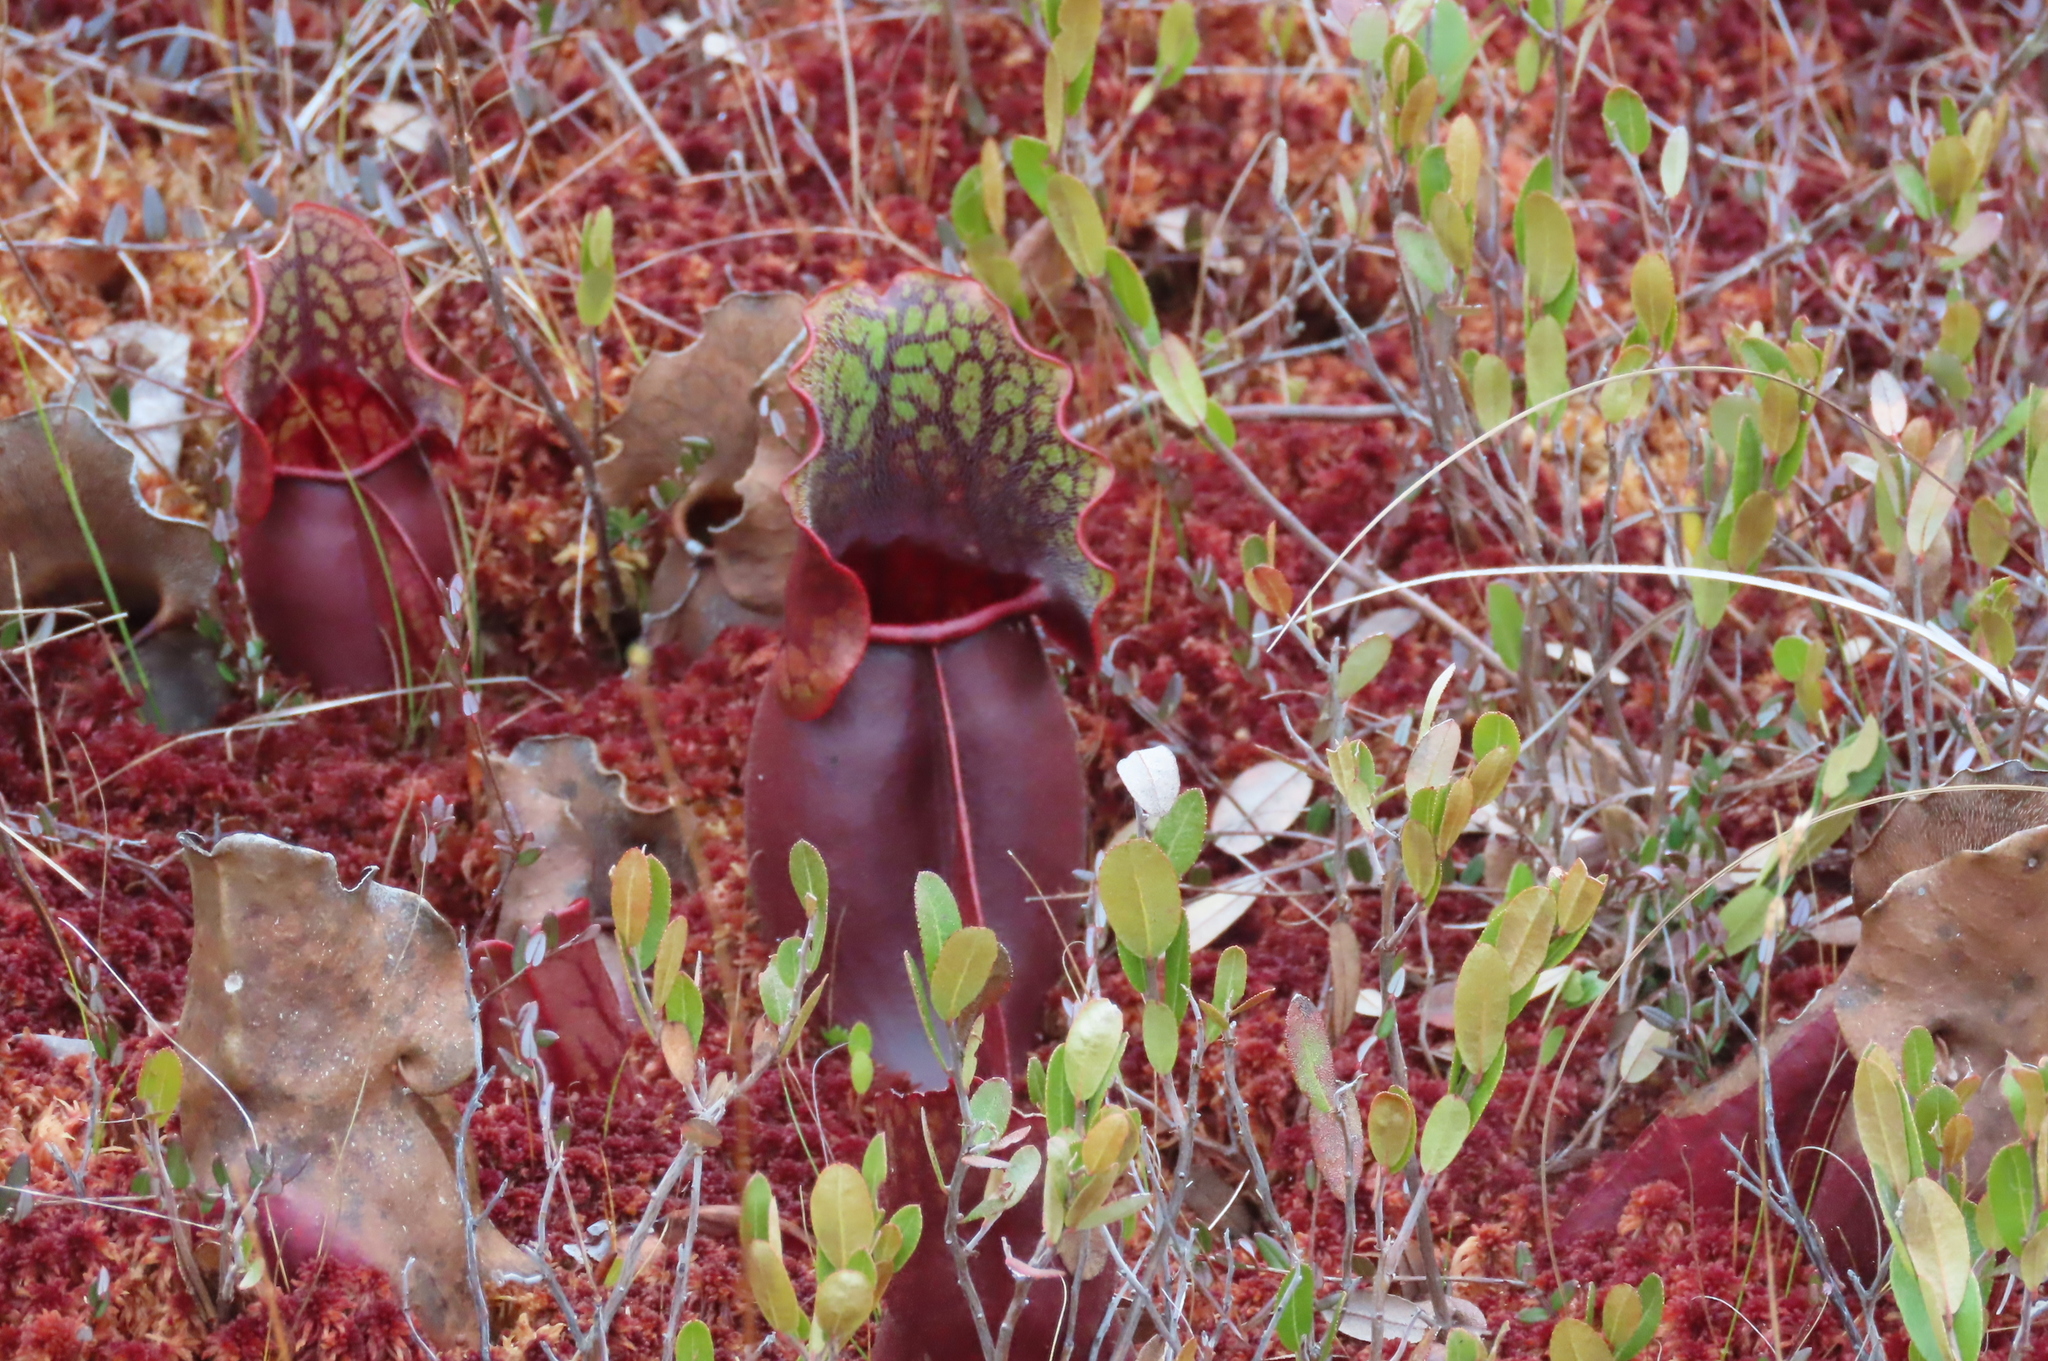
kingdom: Plantae
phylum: Tracheophyta
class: Magnoliopsida
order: Ericales
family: Sarraceniaceae
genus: Sarracenia
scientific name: Sarracenia purpurea
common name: Pitcherplant
